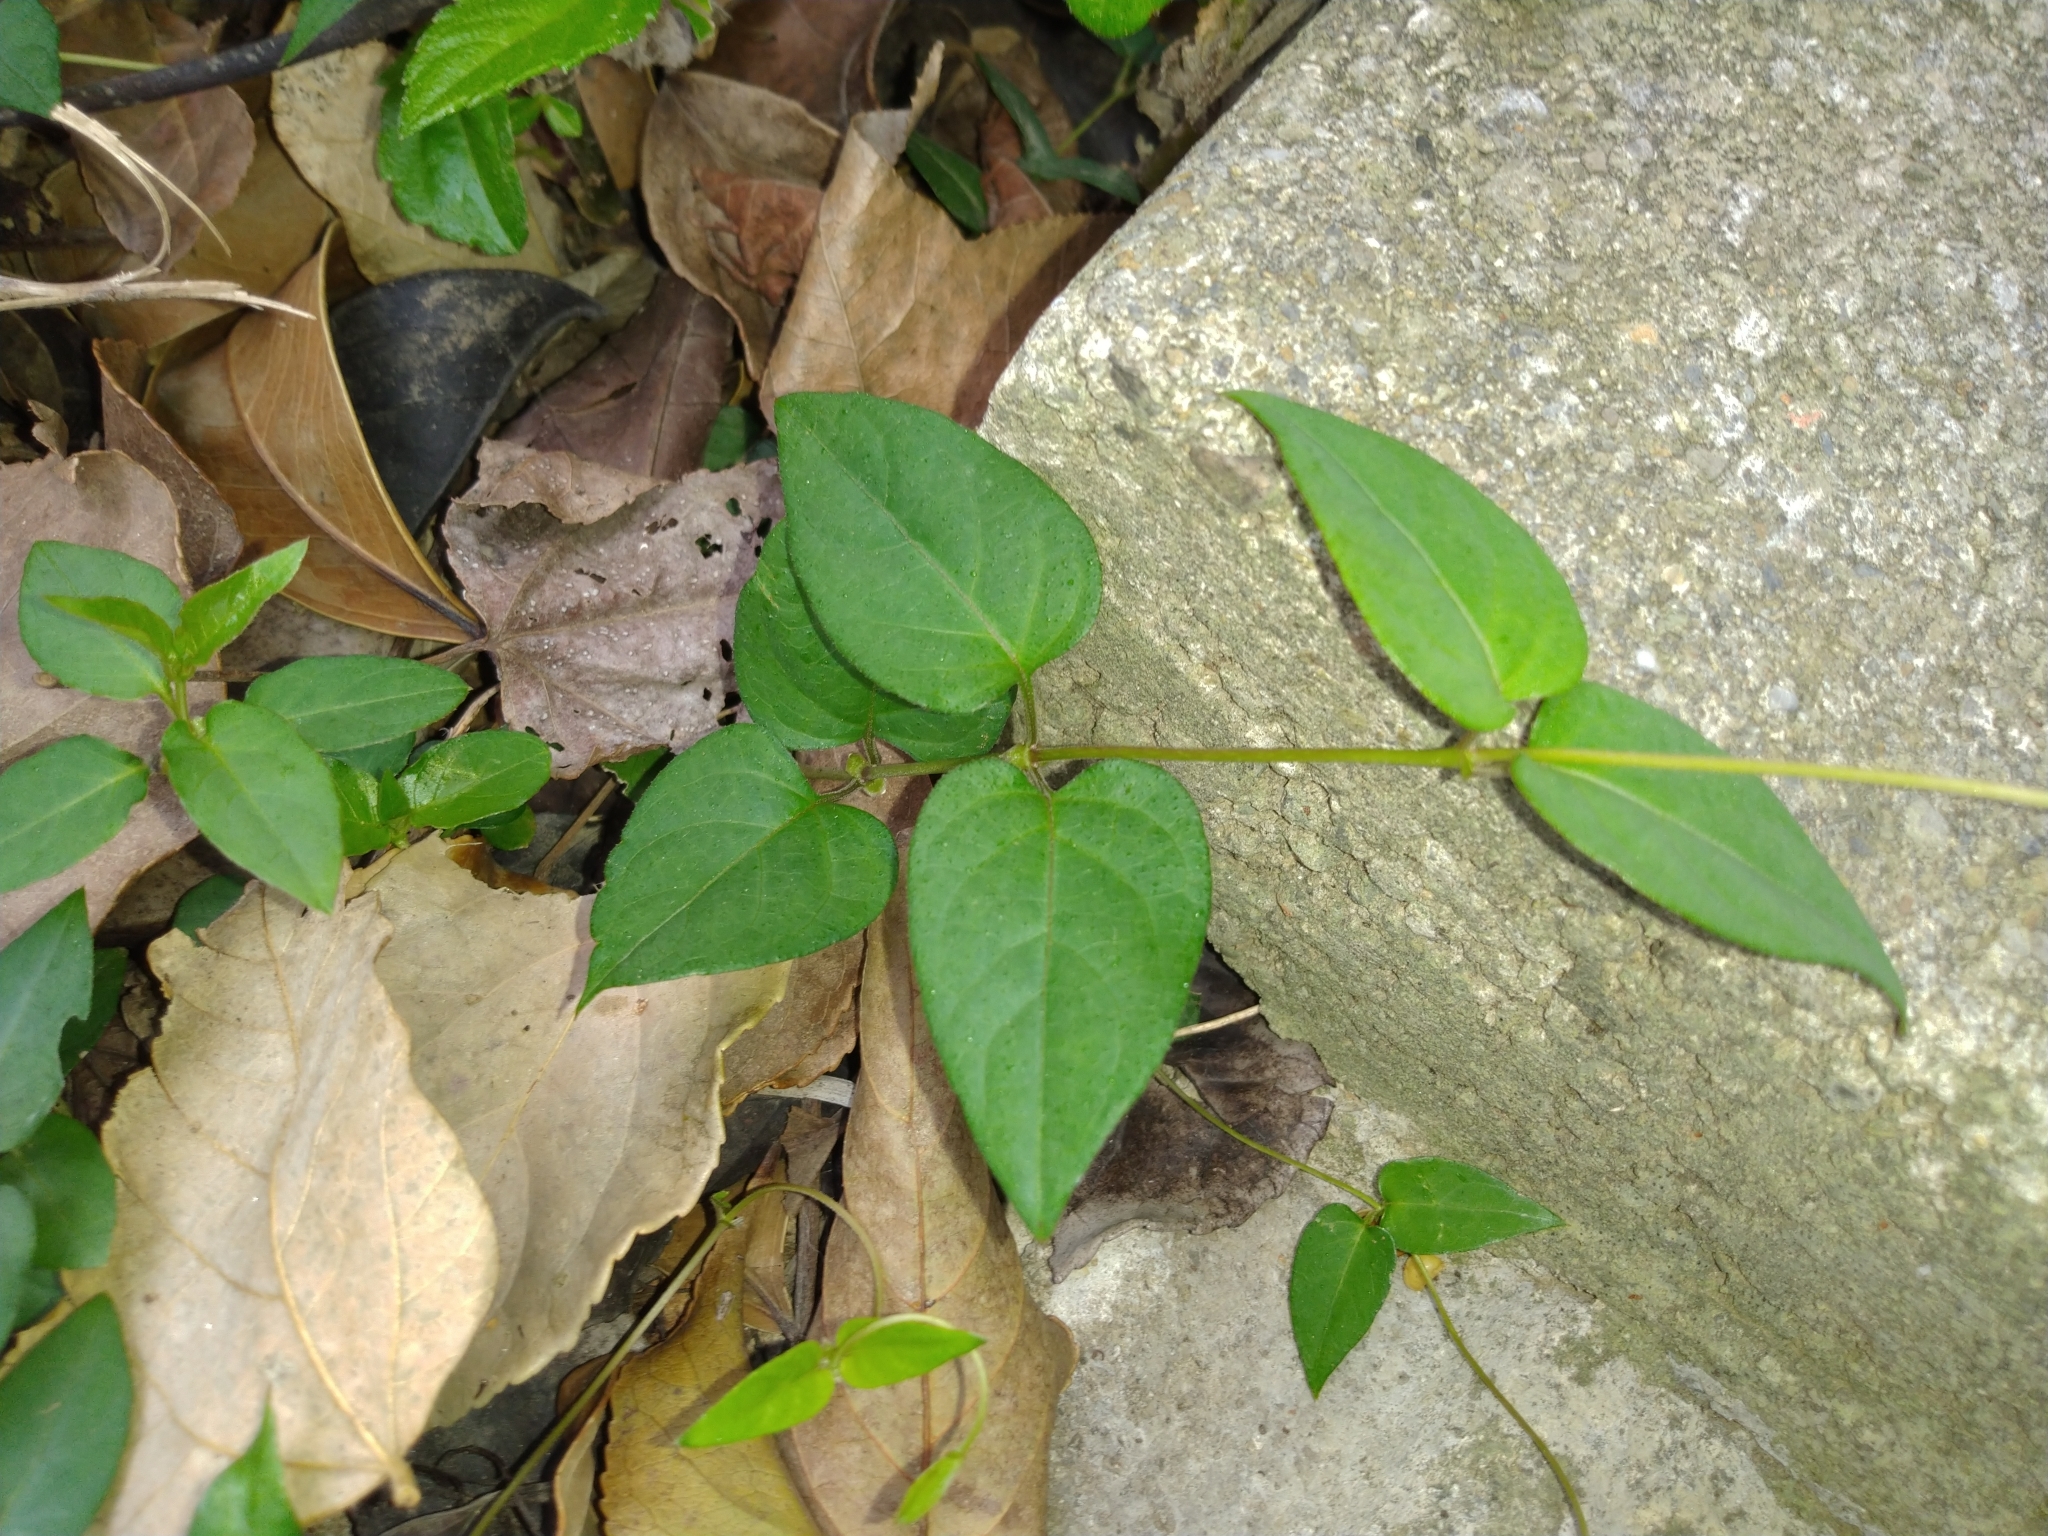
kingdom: Plantae
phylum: Tracheophyta
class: Magnoliopsida
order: Gentianales
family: Rubiaceae
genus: Paederia
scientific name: Paederia foetida
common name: Stinkvine
